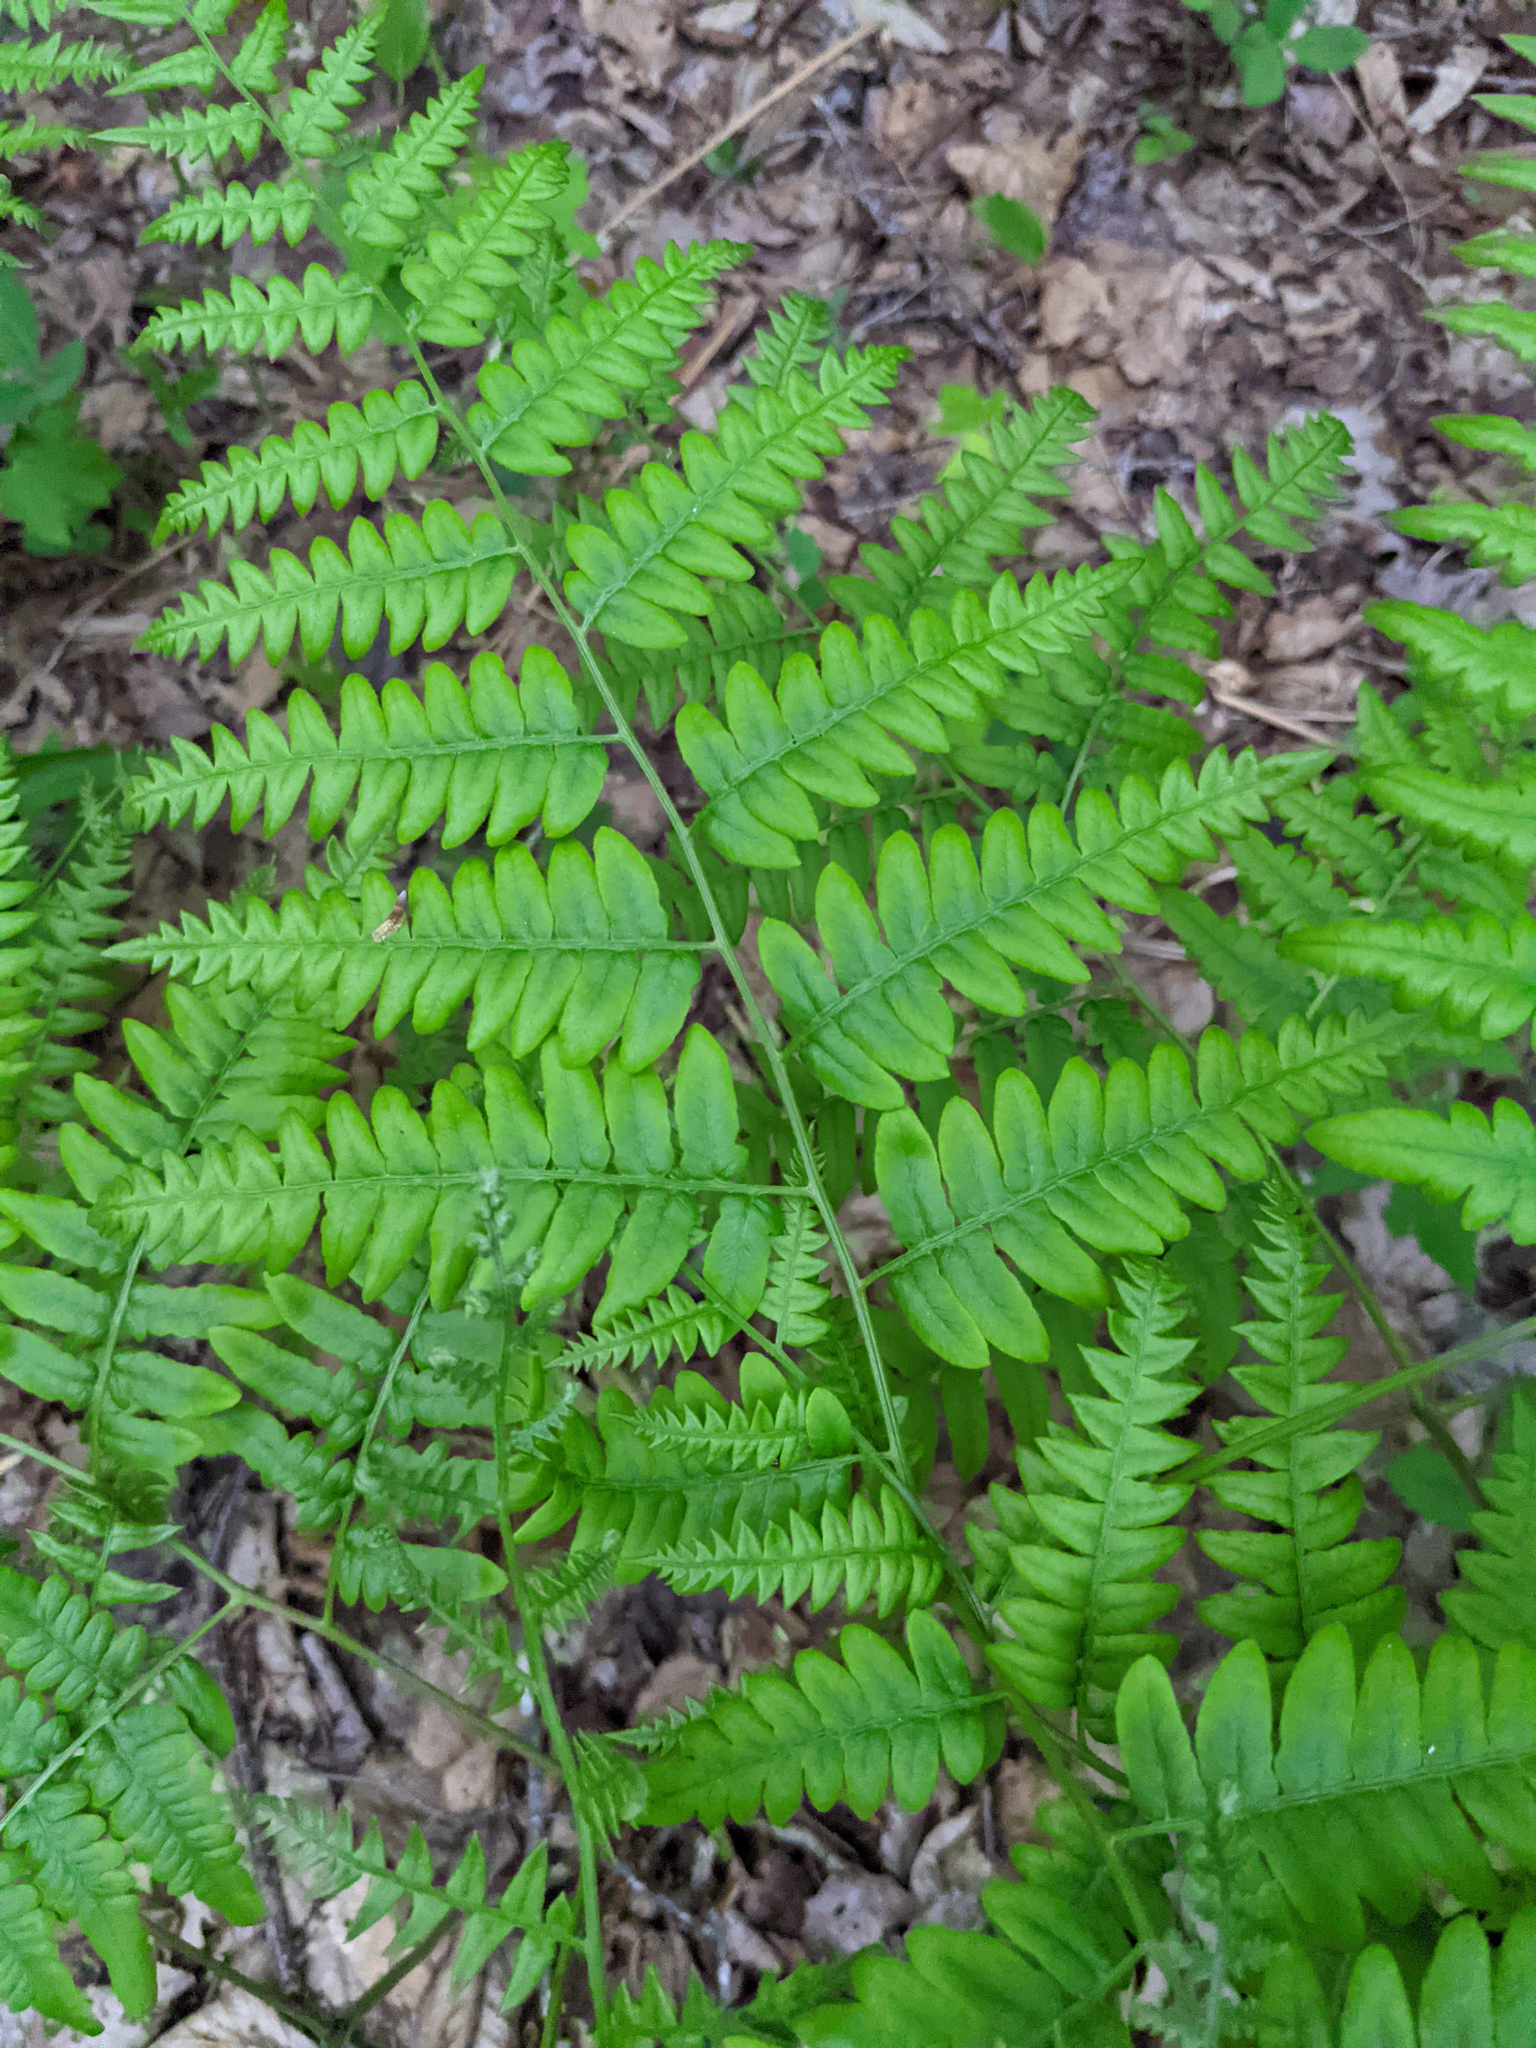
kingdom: Plantae
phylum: Tracheophyta
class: Polypodiopsida
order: Polypodiales
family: Dennstaedtiaceae
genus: Pteridium
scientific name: Pteridium aquilinum
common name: Bracken
